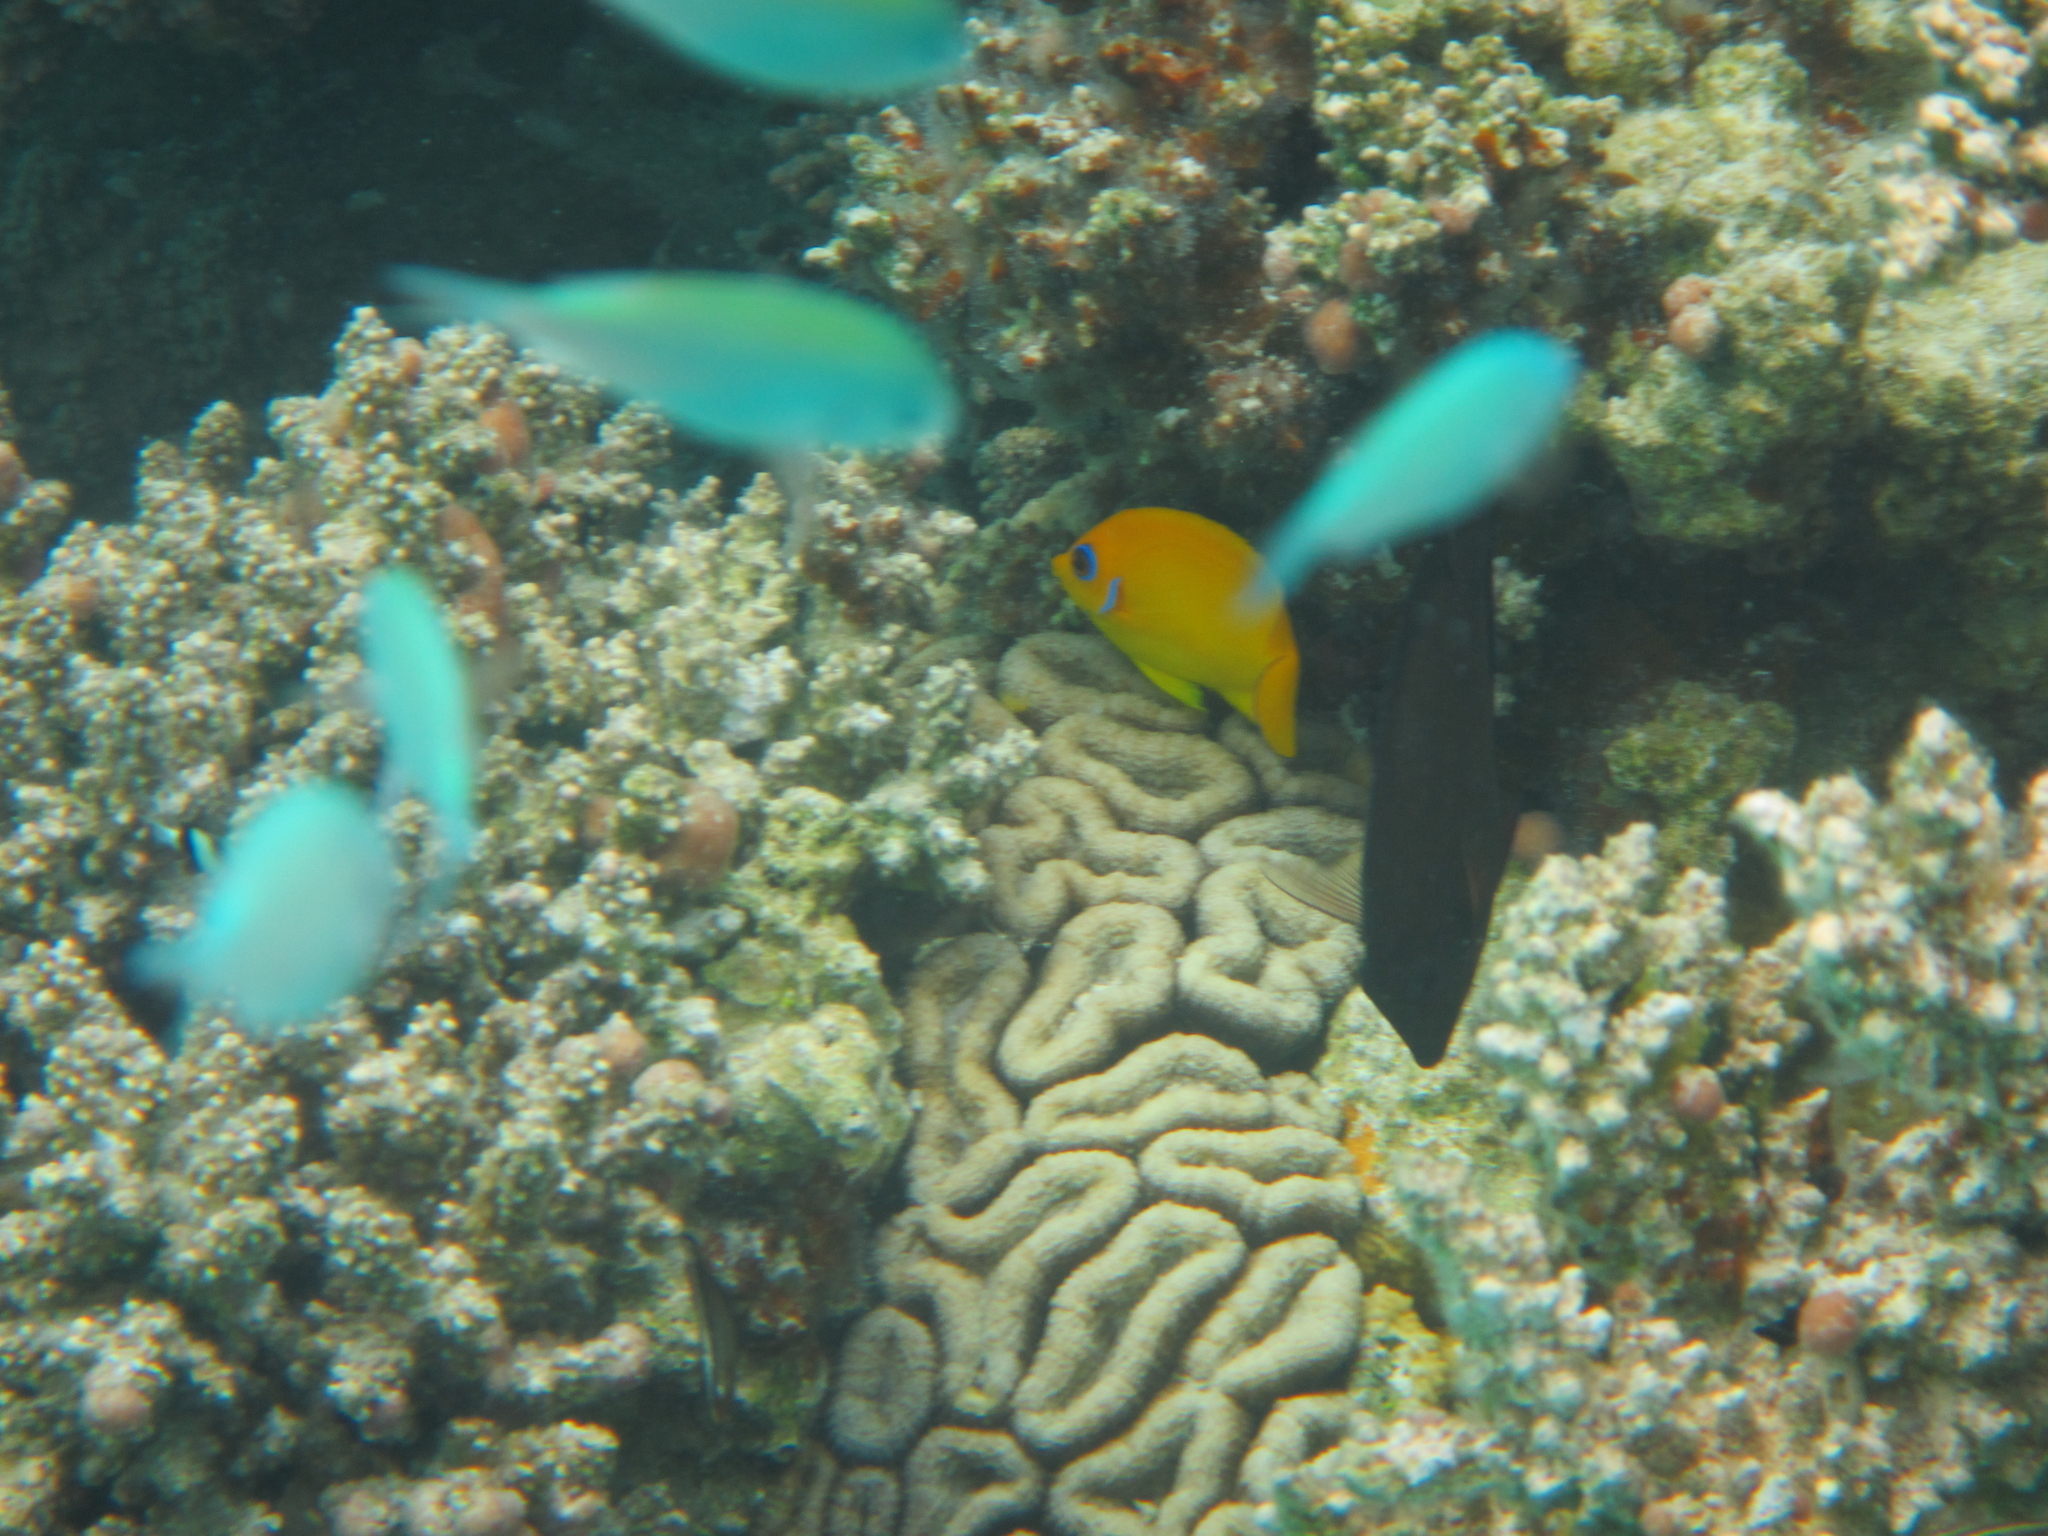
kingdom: Animalia
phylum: Chordata
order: Perciformes
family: Pomacanthidae
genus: Centropyge
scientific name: Centropyge flavissima
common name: Lemonpeel angelfish
